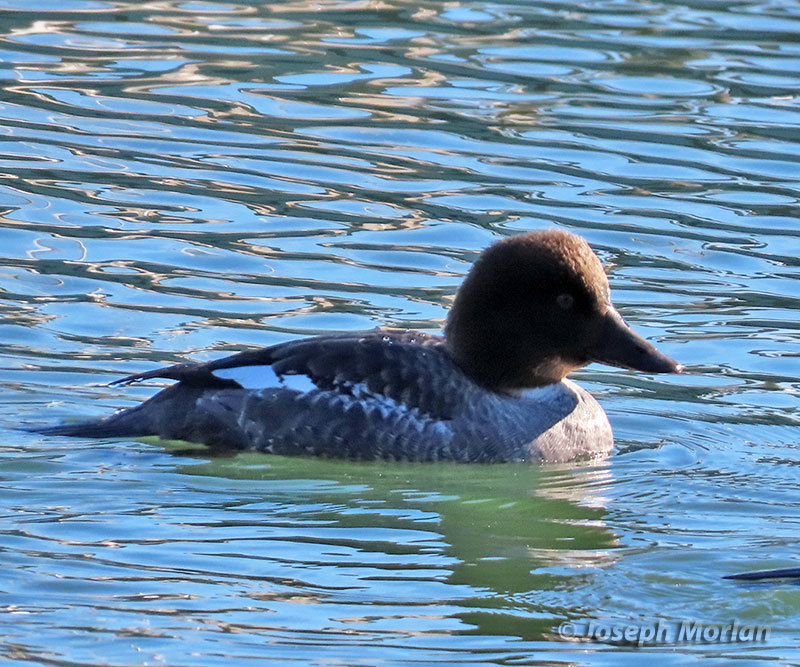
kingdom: Animalia
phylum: Chordata
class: Aves
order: Anseriformes
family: Anatidae
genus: Bucephala
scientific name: Bucephala clangula
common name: Common goldeneye
